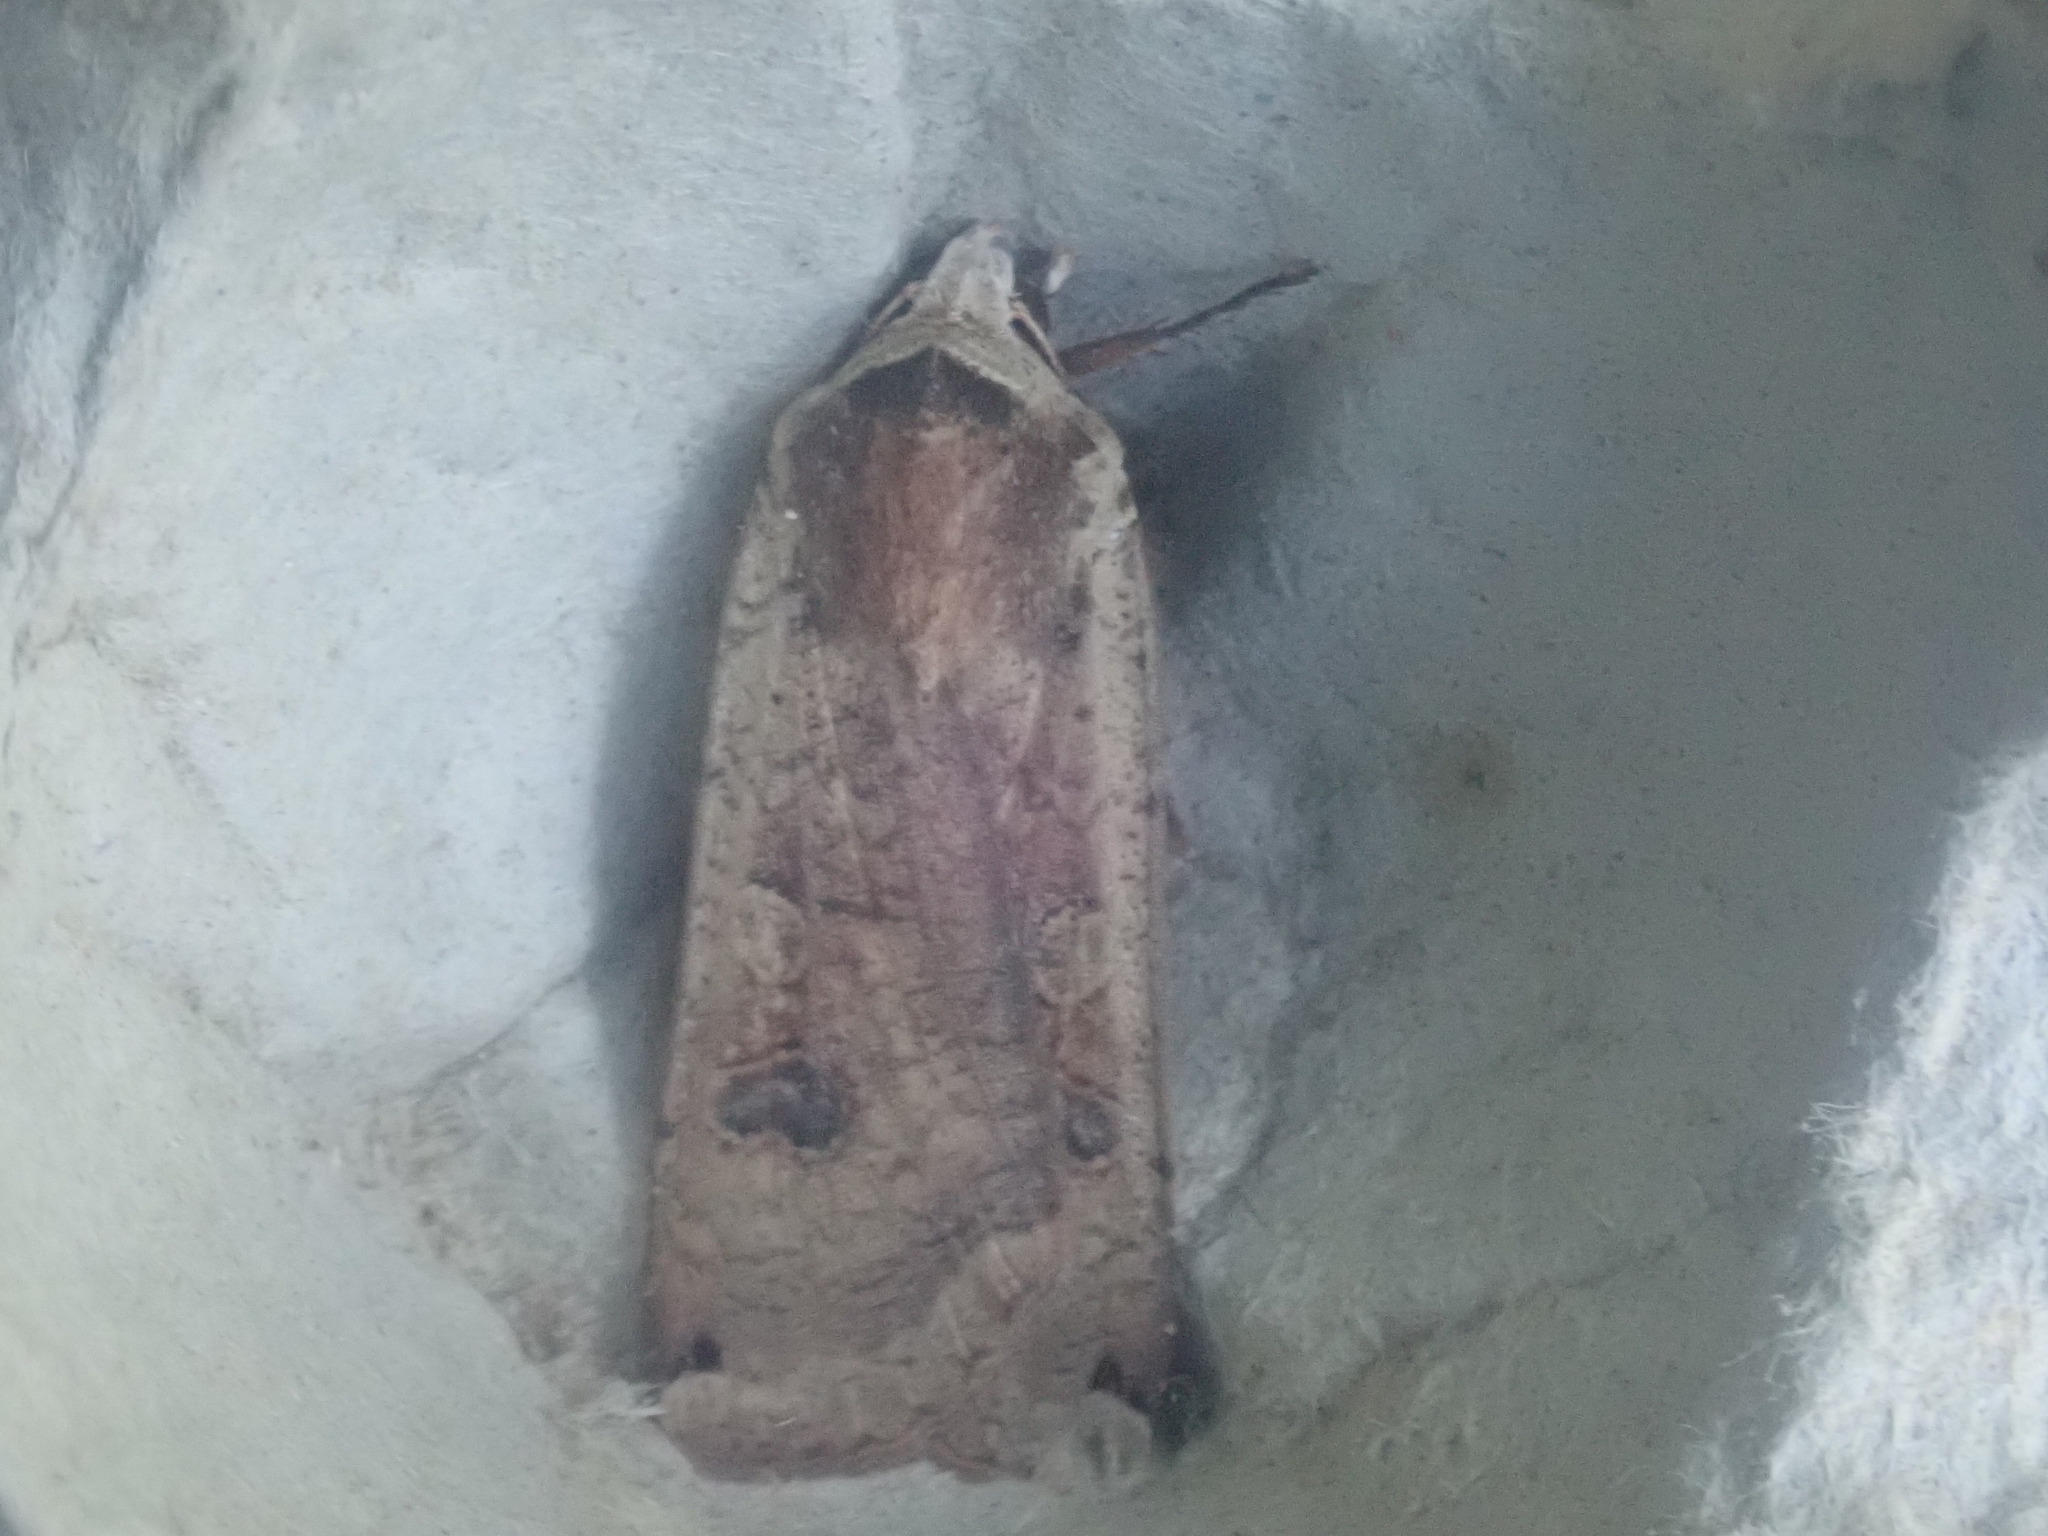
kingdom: Animalia
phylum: Arthropoda
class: Insecta
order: Lepidoptera
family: Noctuidae
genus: Noctua
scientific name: Noctua pronuba
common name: Large yellow underwing
